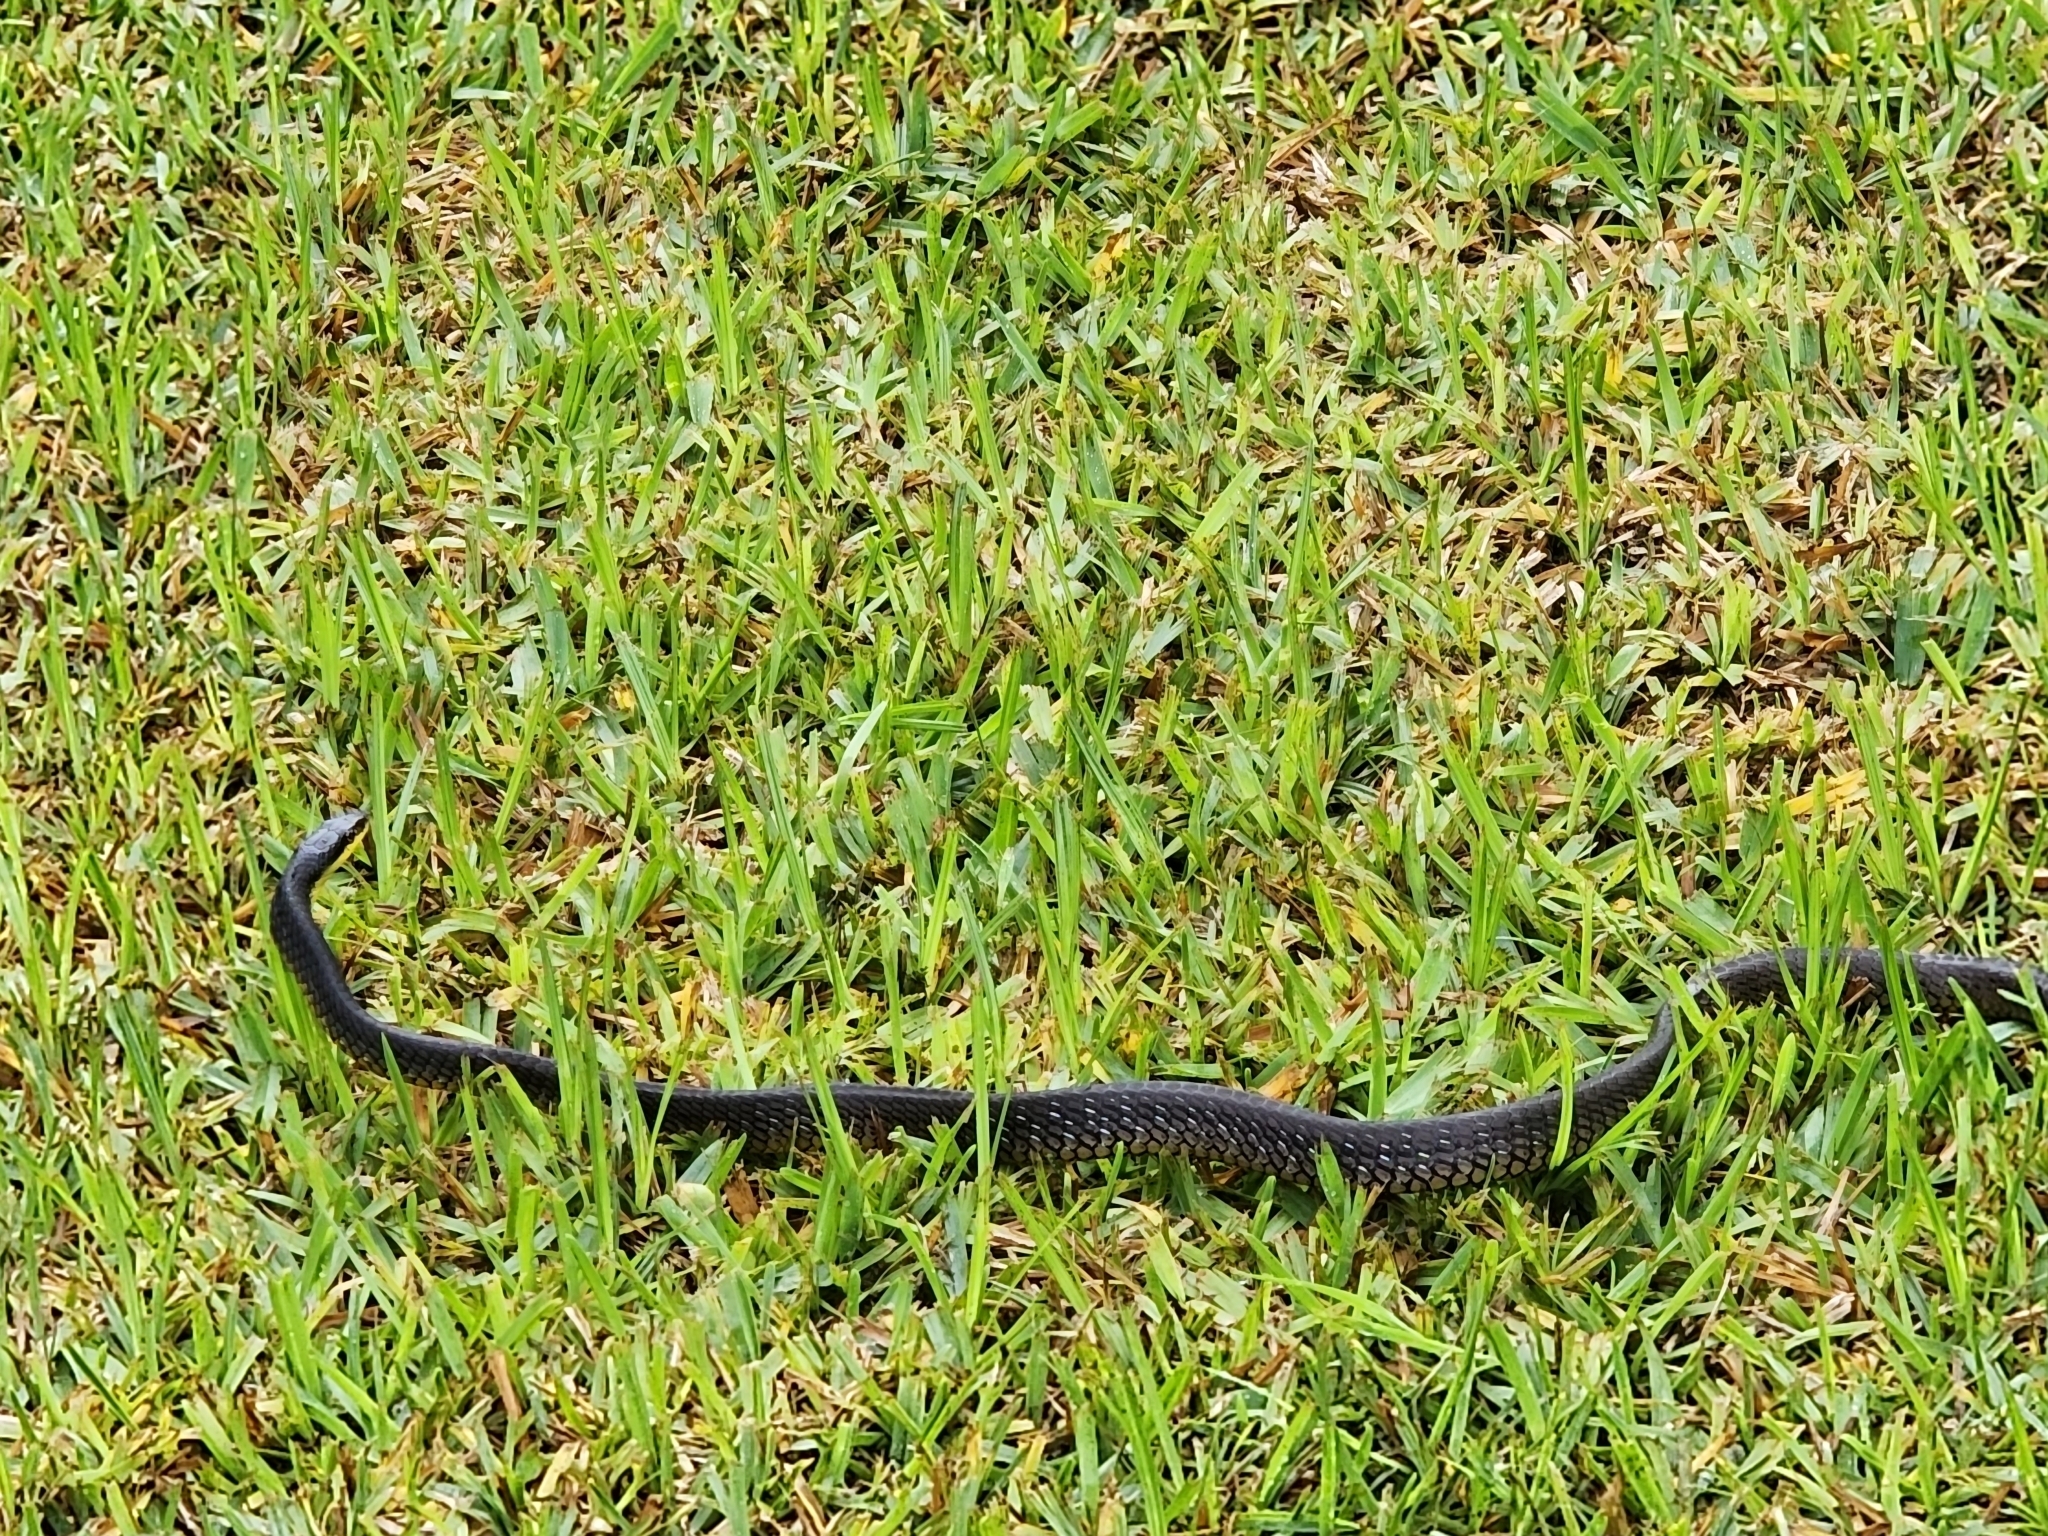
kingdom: Animalia
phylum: Chordata
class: Squamata
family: Colubridae
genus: Dendrelaphis
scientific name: Dendrelaphis punctulatus
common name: Common tree snake
